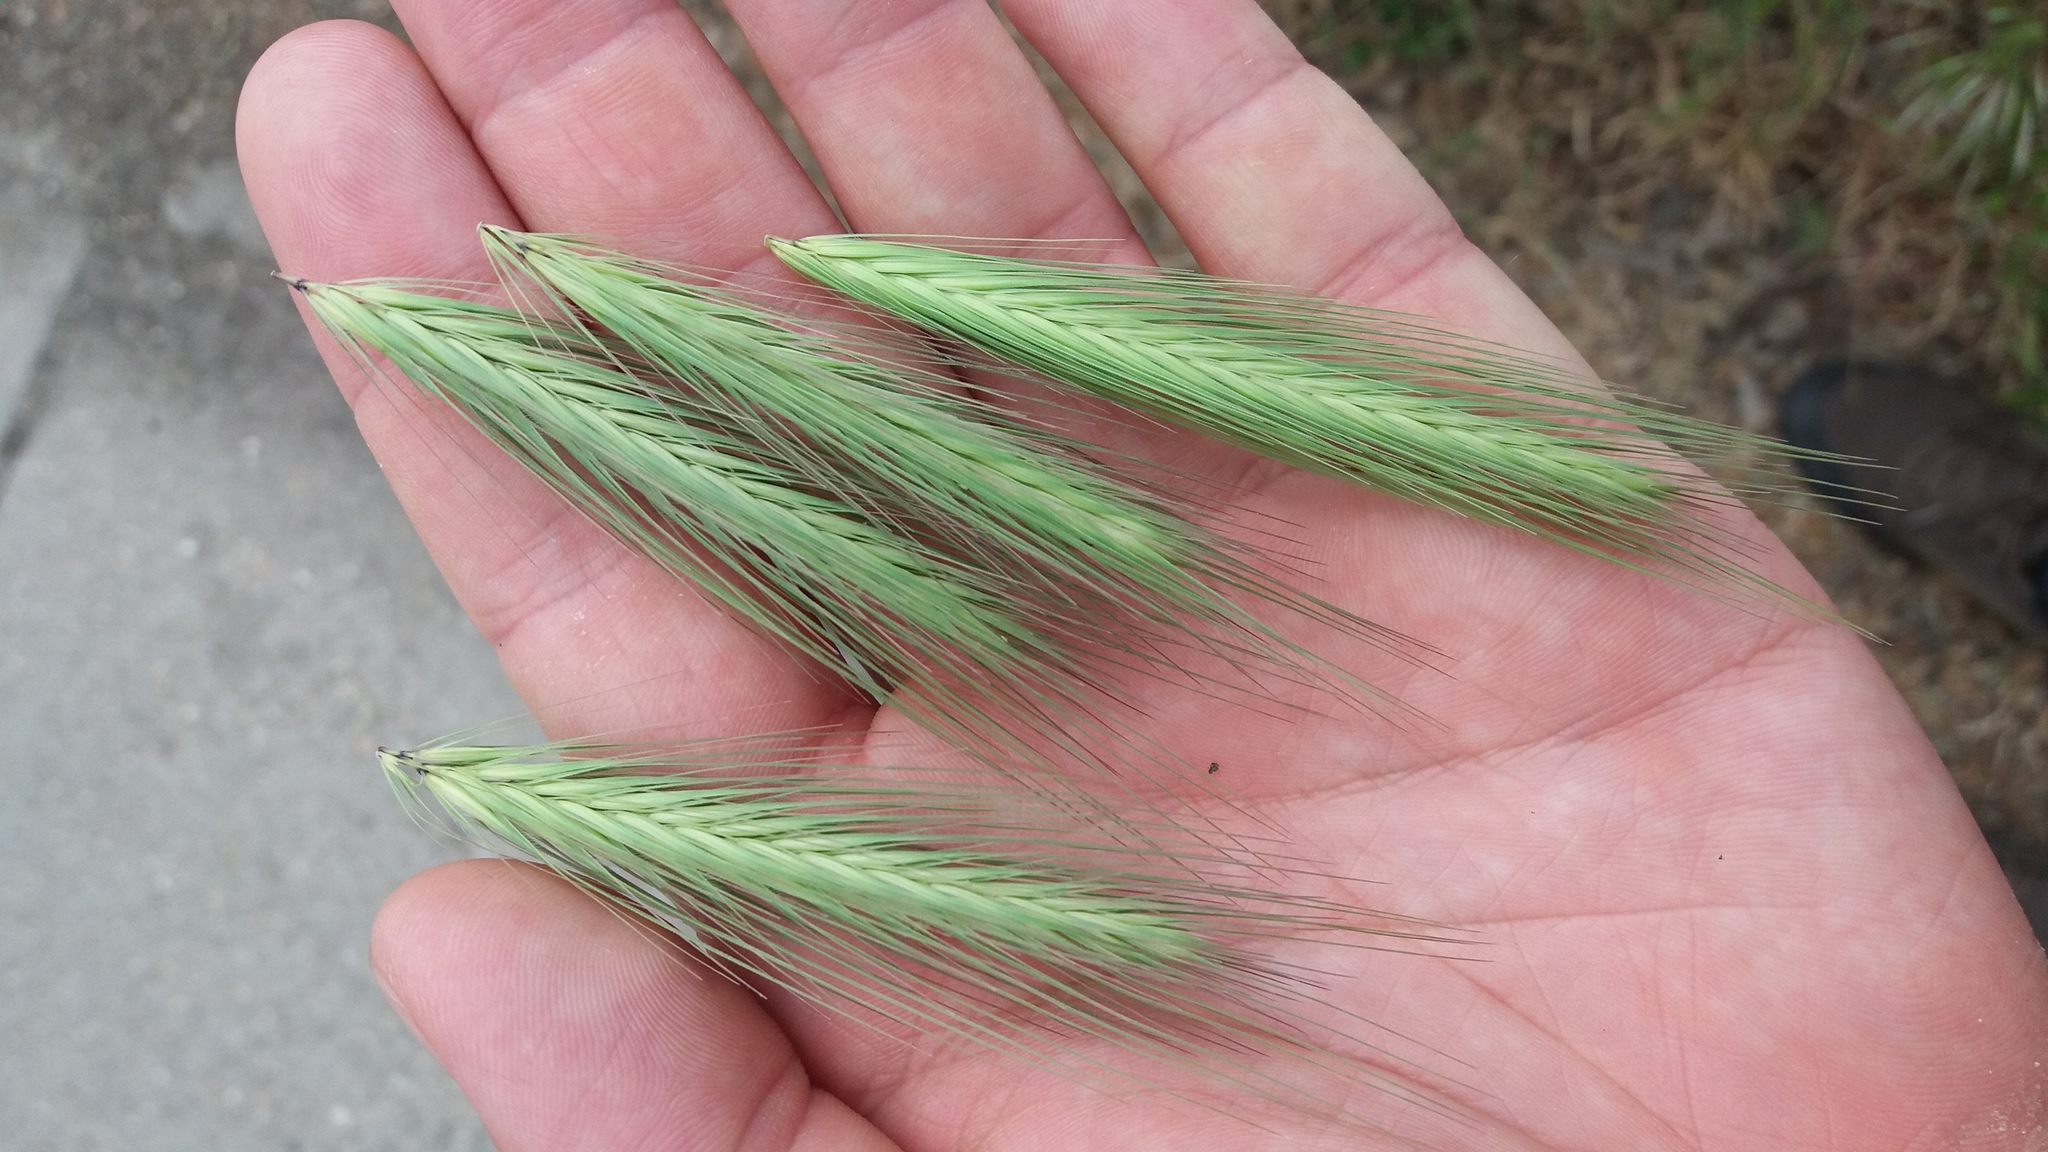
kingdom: Plantae
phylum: Tracheophyta
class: Liliopsida
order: Poales
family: Poaceae
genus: Hordeum
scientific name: Hordeum murinum
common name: Wall barley
